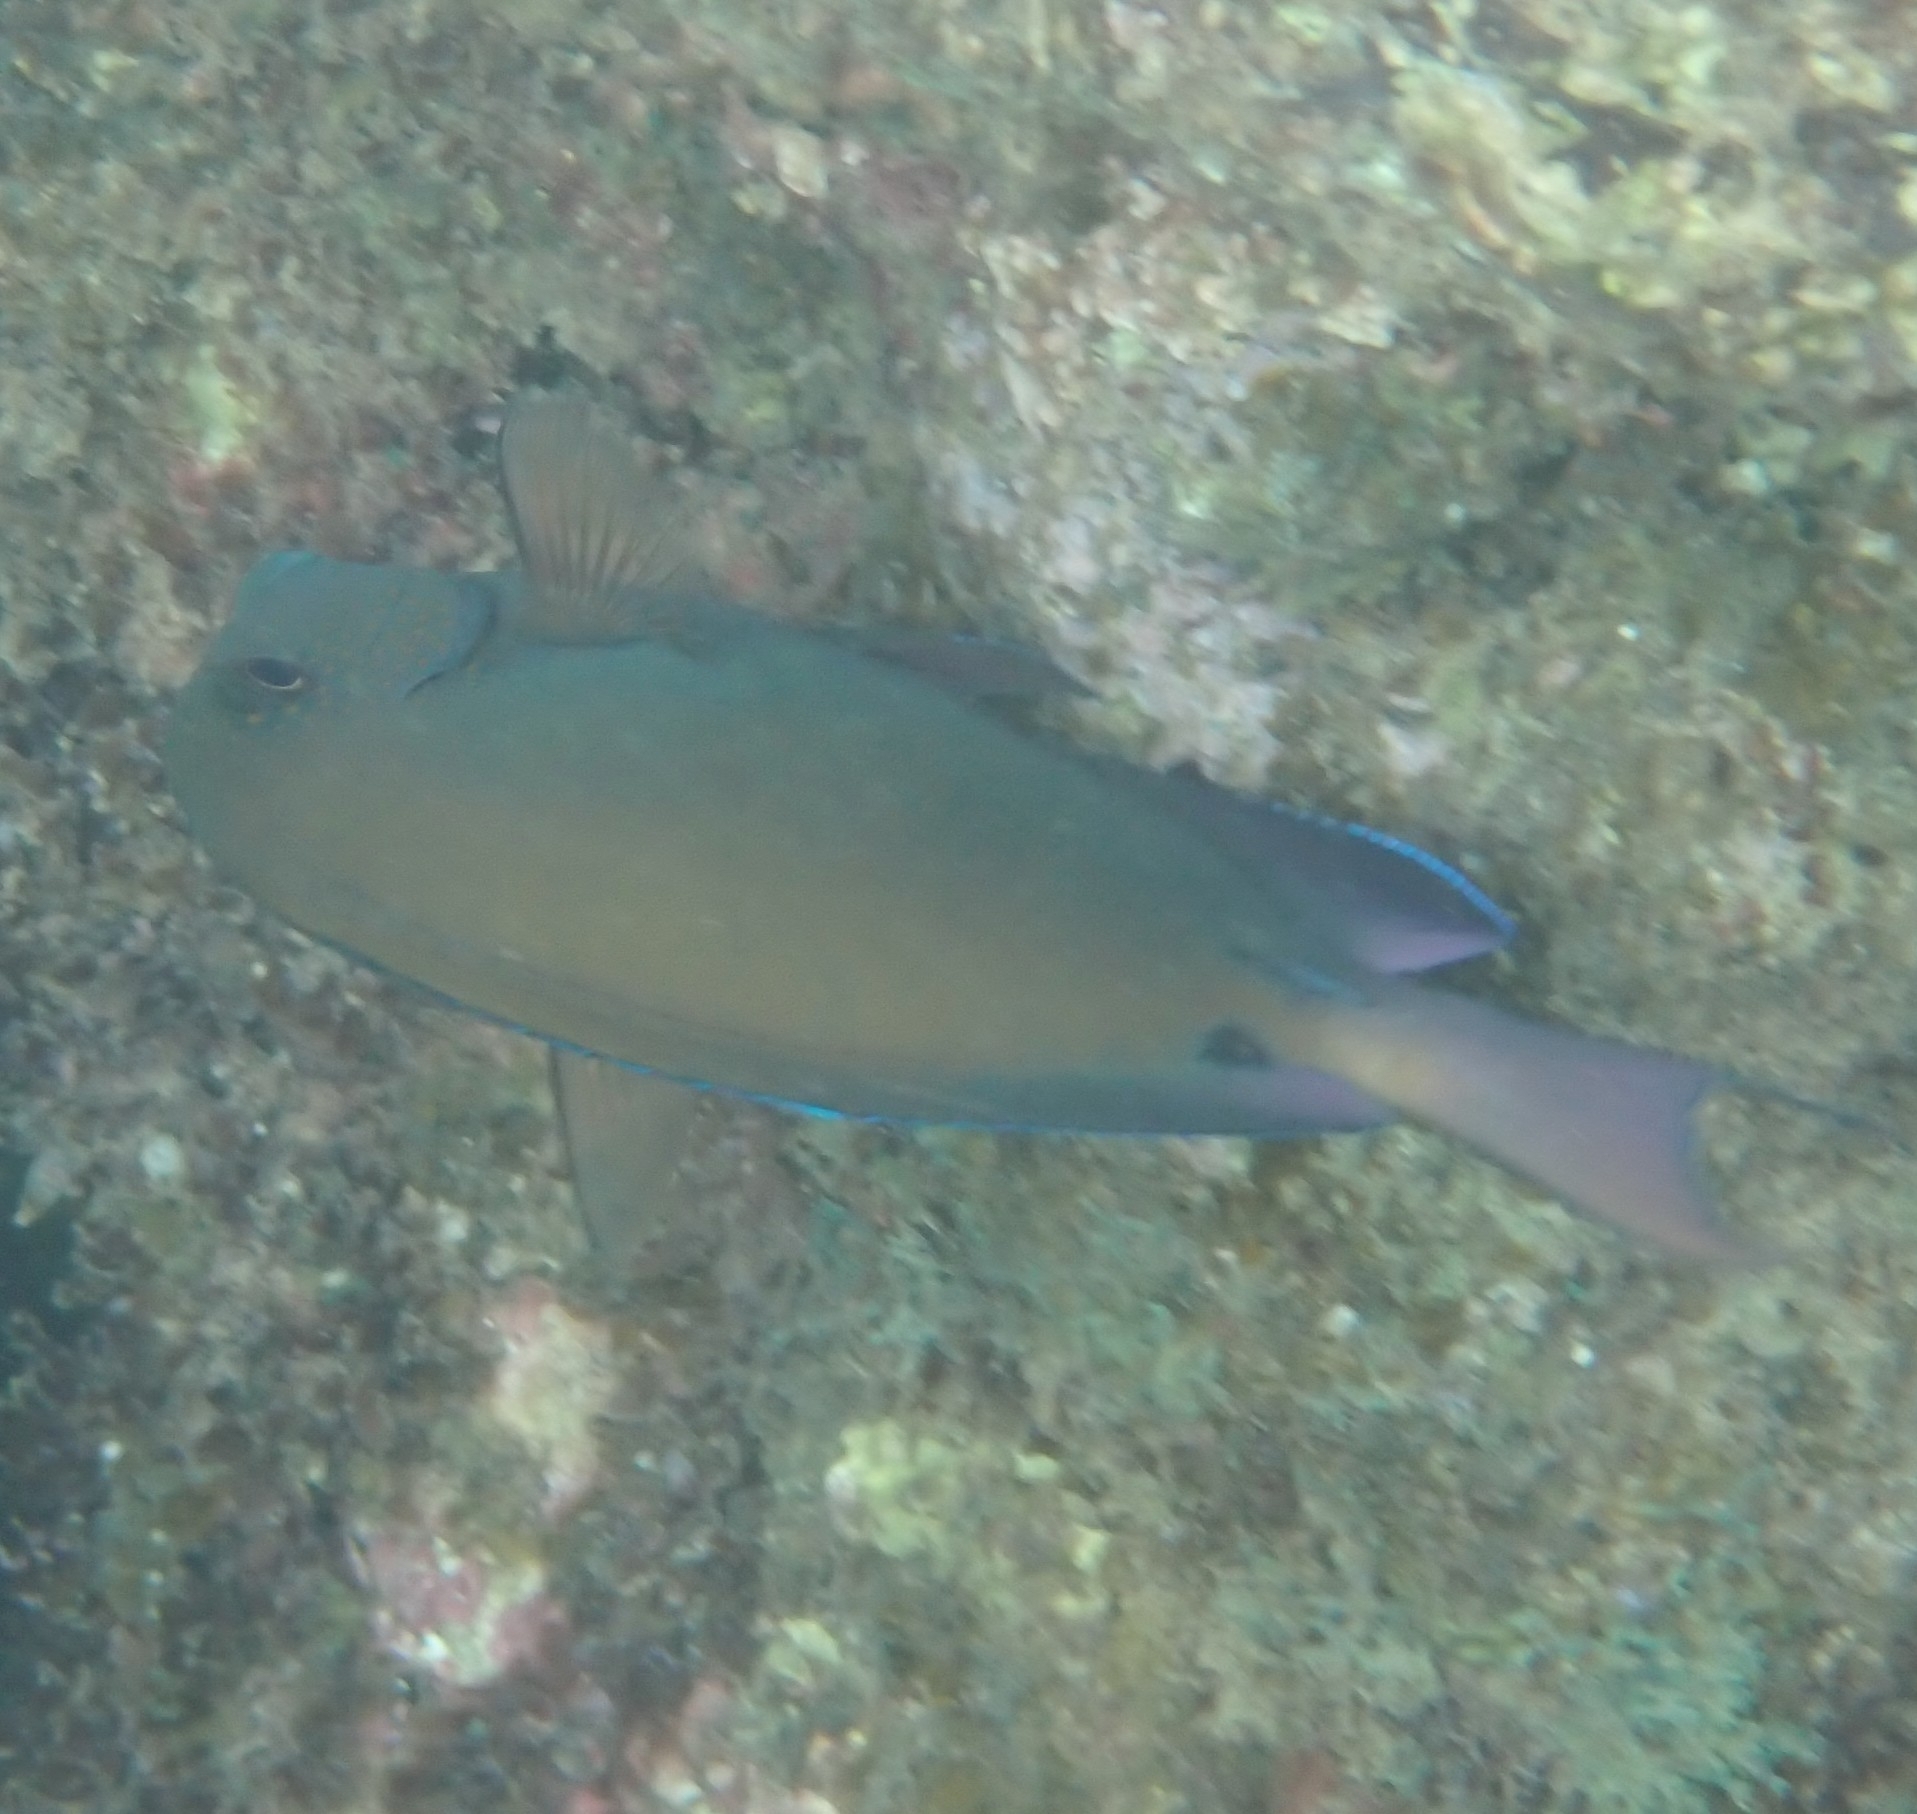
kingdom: Animalia
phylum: Chordata
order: Perciformes
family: Acanthuridae
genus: Acanthurus
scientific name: Acanthurus nigrofuscus
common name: Blackspot surgeonfish
